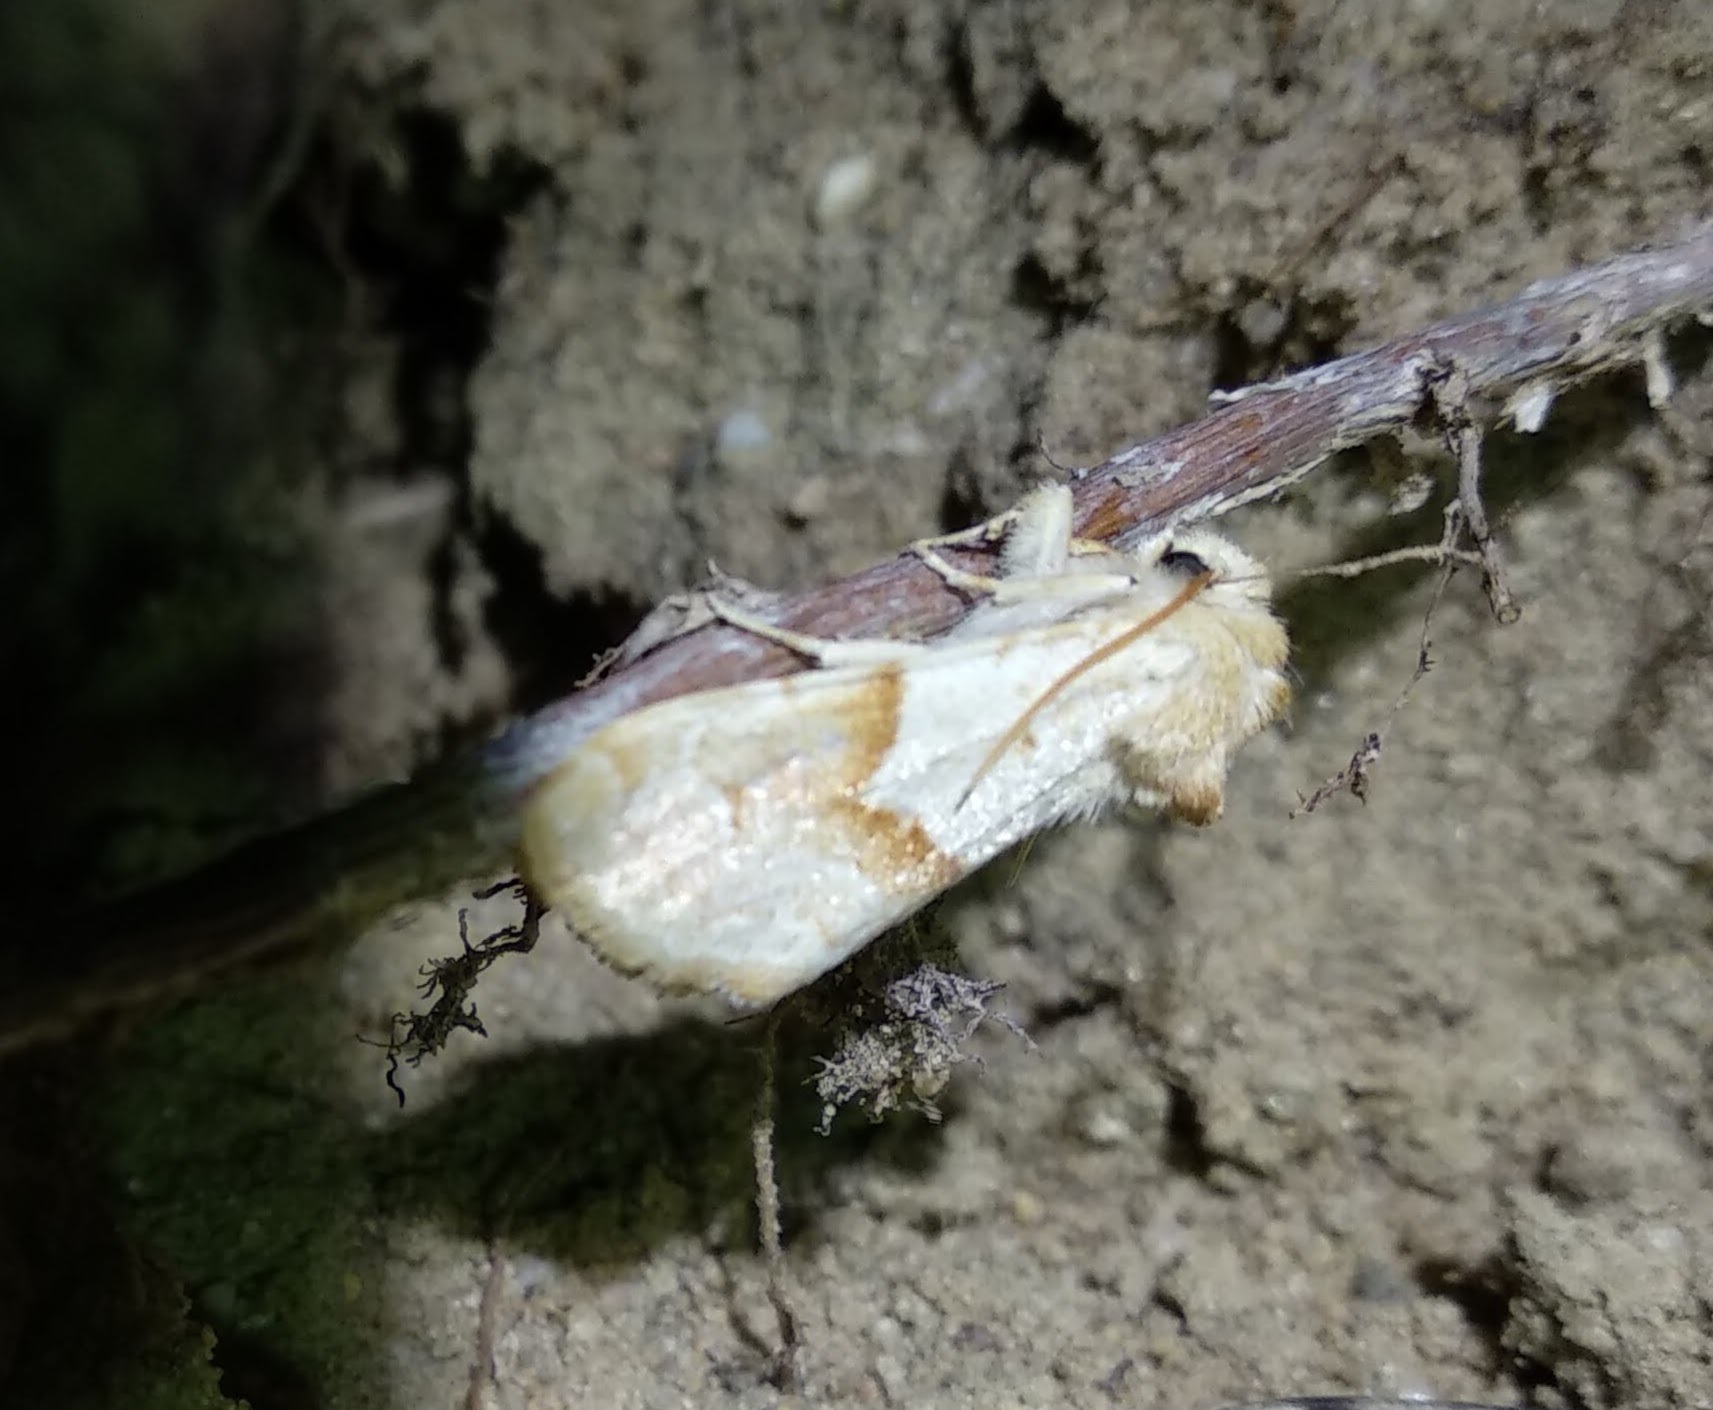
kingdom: Animalia
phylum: Arthropoda
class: Insecta
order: Lepidoptera
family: Noctuidae
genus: Mycteroplus
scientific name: Mycteroplus puniceago
